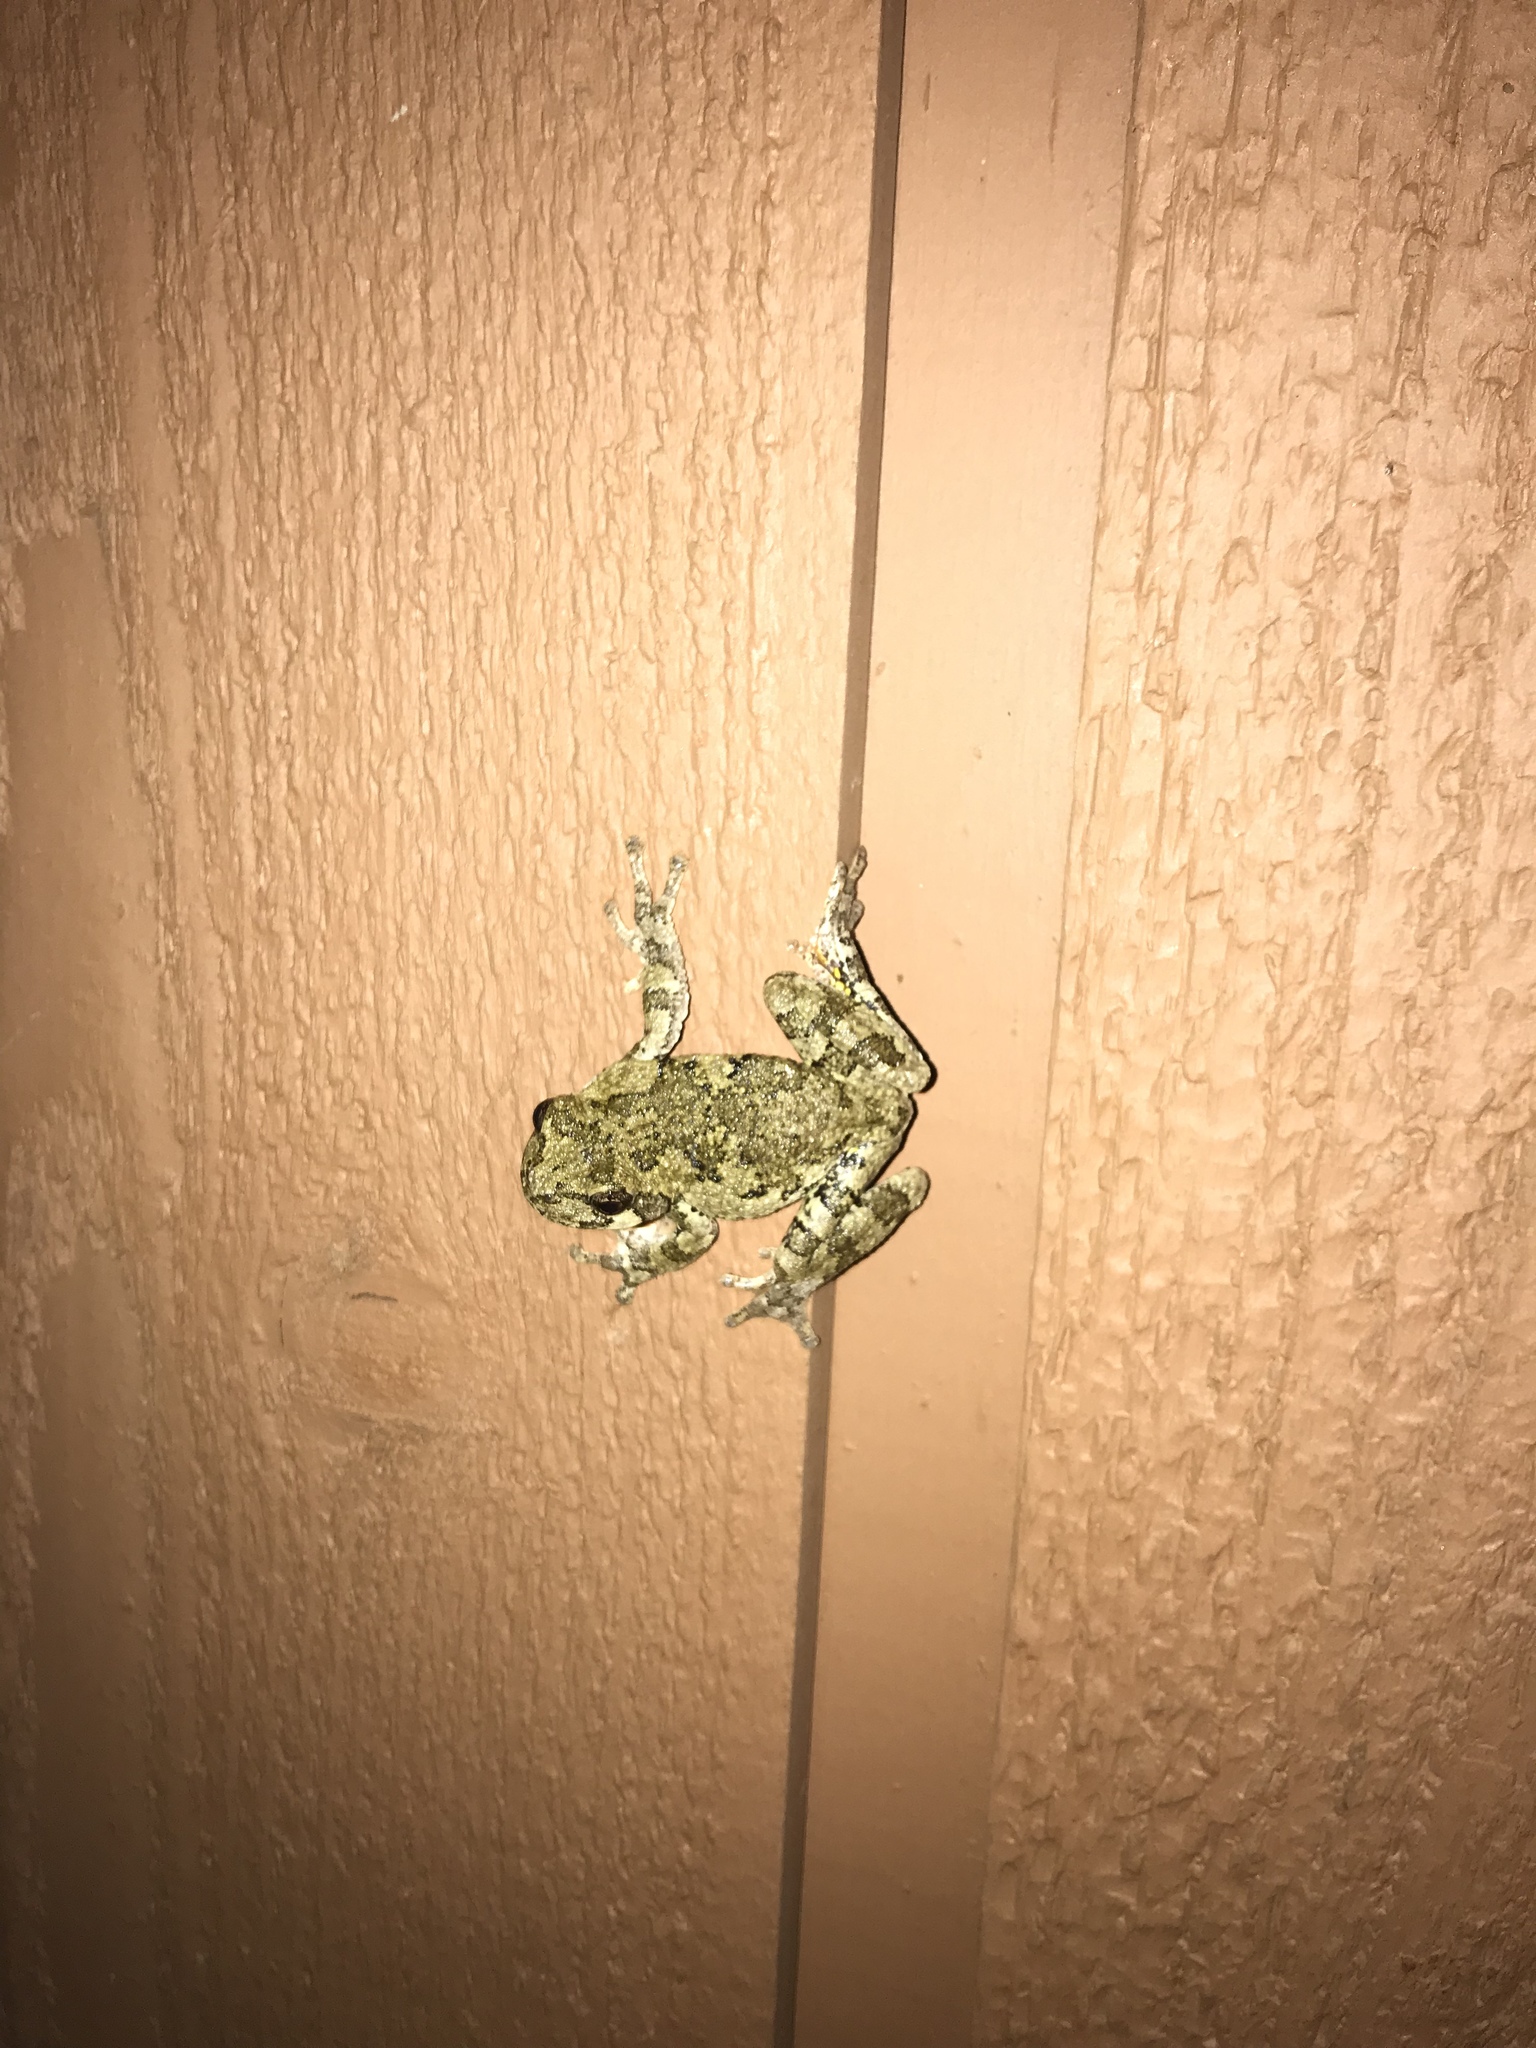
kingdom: Animalia
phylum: Chordata
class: Amphibia
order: Anura
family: Hylidae
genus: Dryophytes
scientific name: Dryophytes versicolor
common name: Gray treefrog
